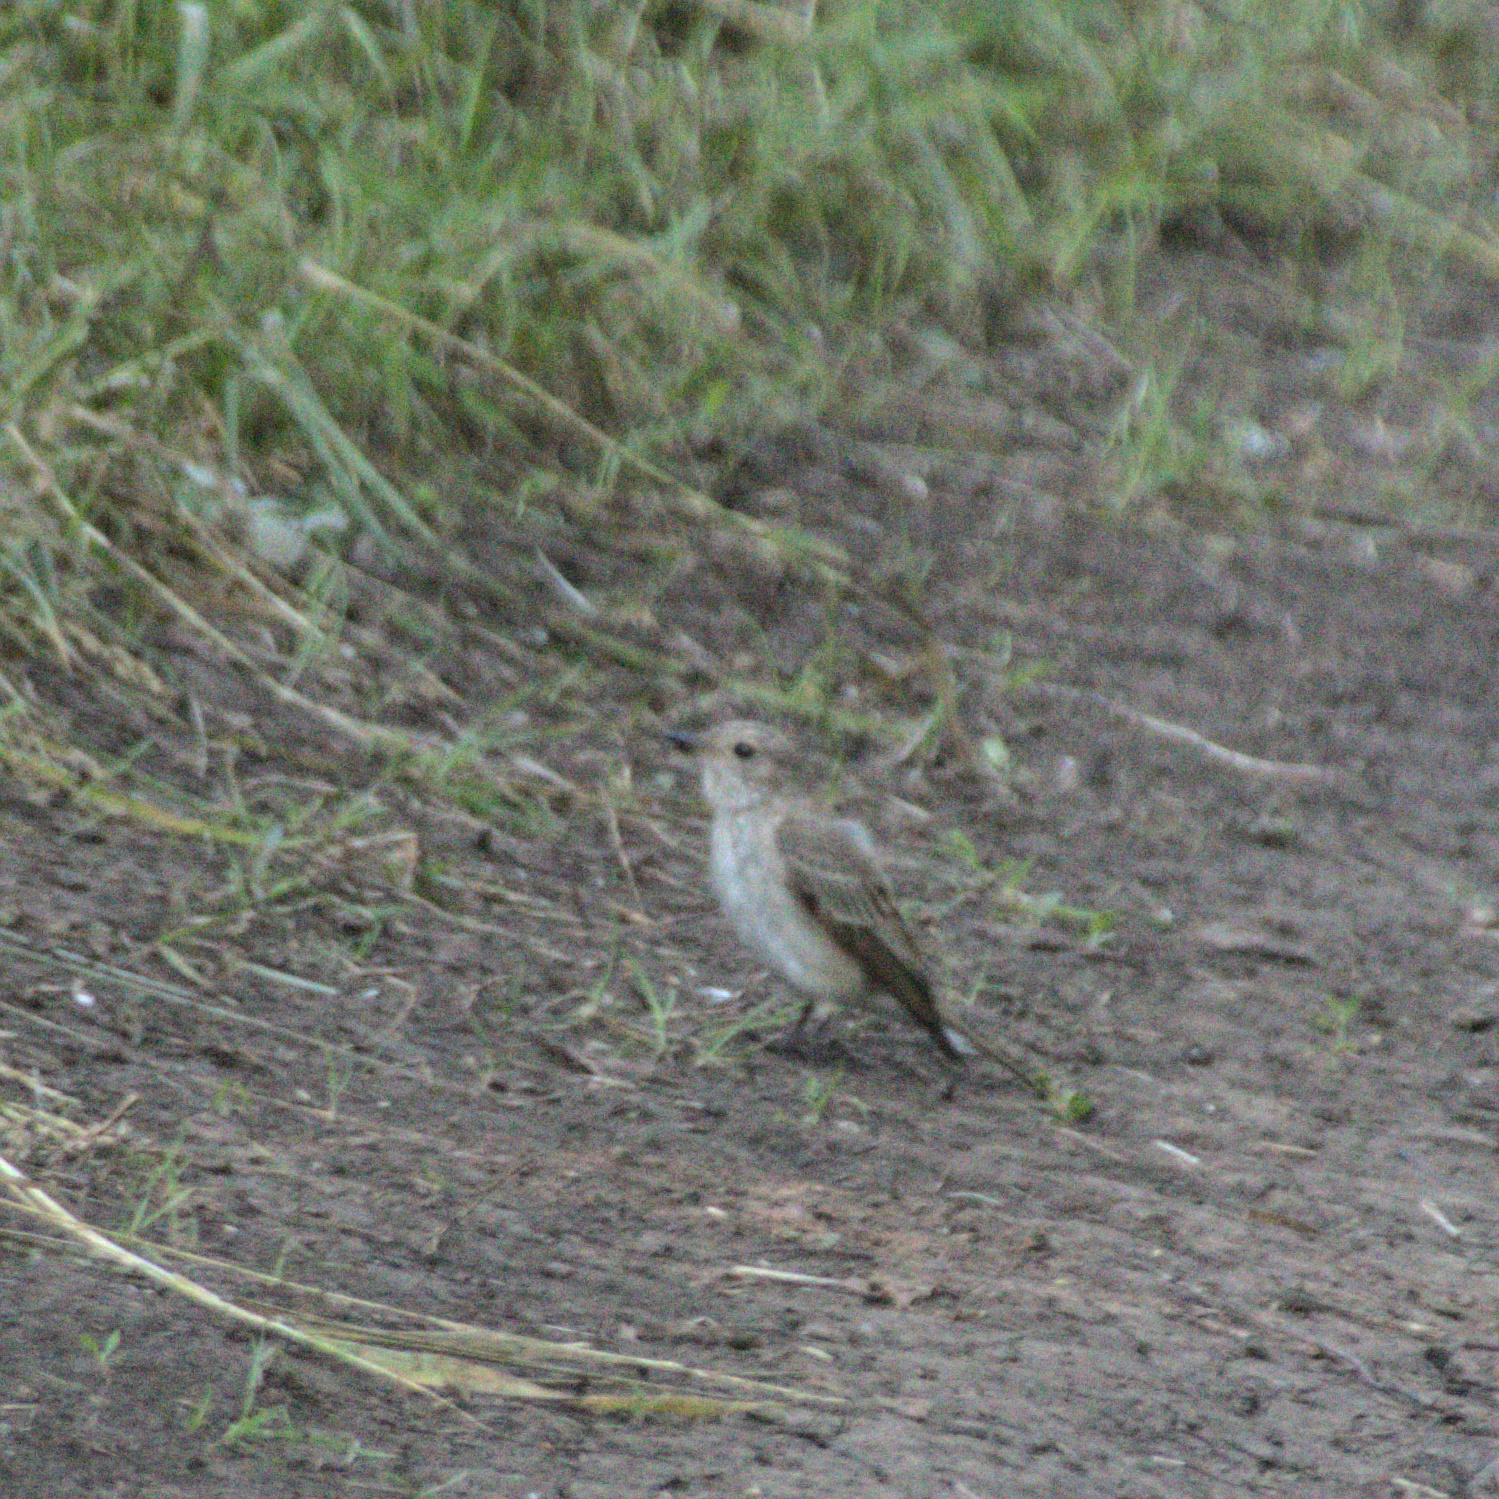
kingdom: Animalia
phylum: Chordata
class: Aves
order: Passeriformes
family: Muscicapidae
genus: Muscicapa
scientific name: Muscicapa striata
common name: Spotted flycatcher
